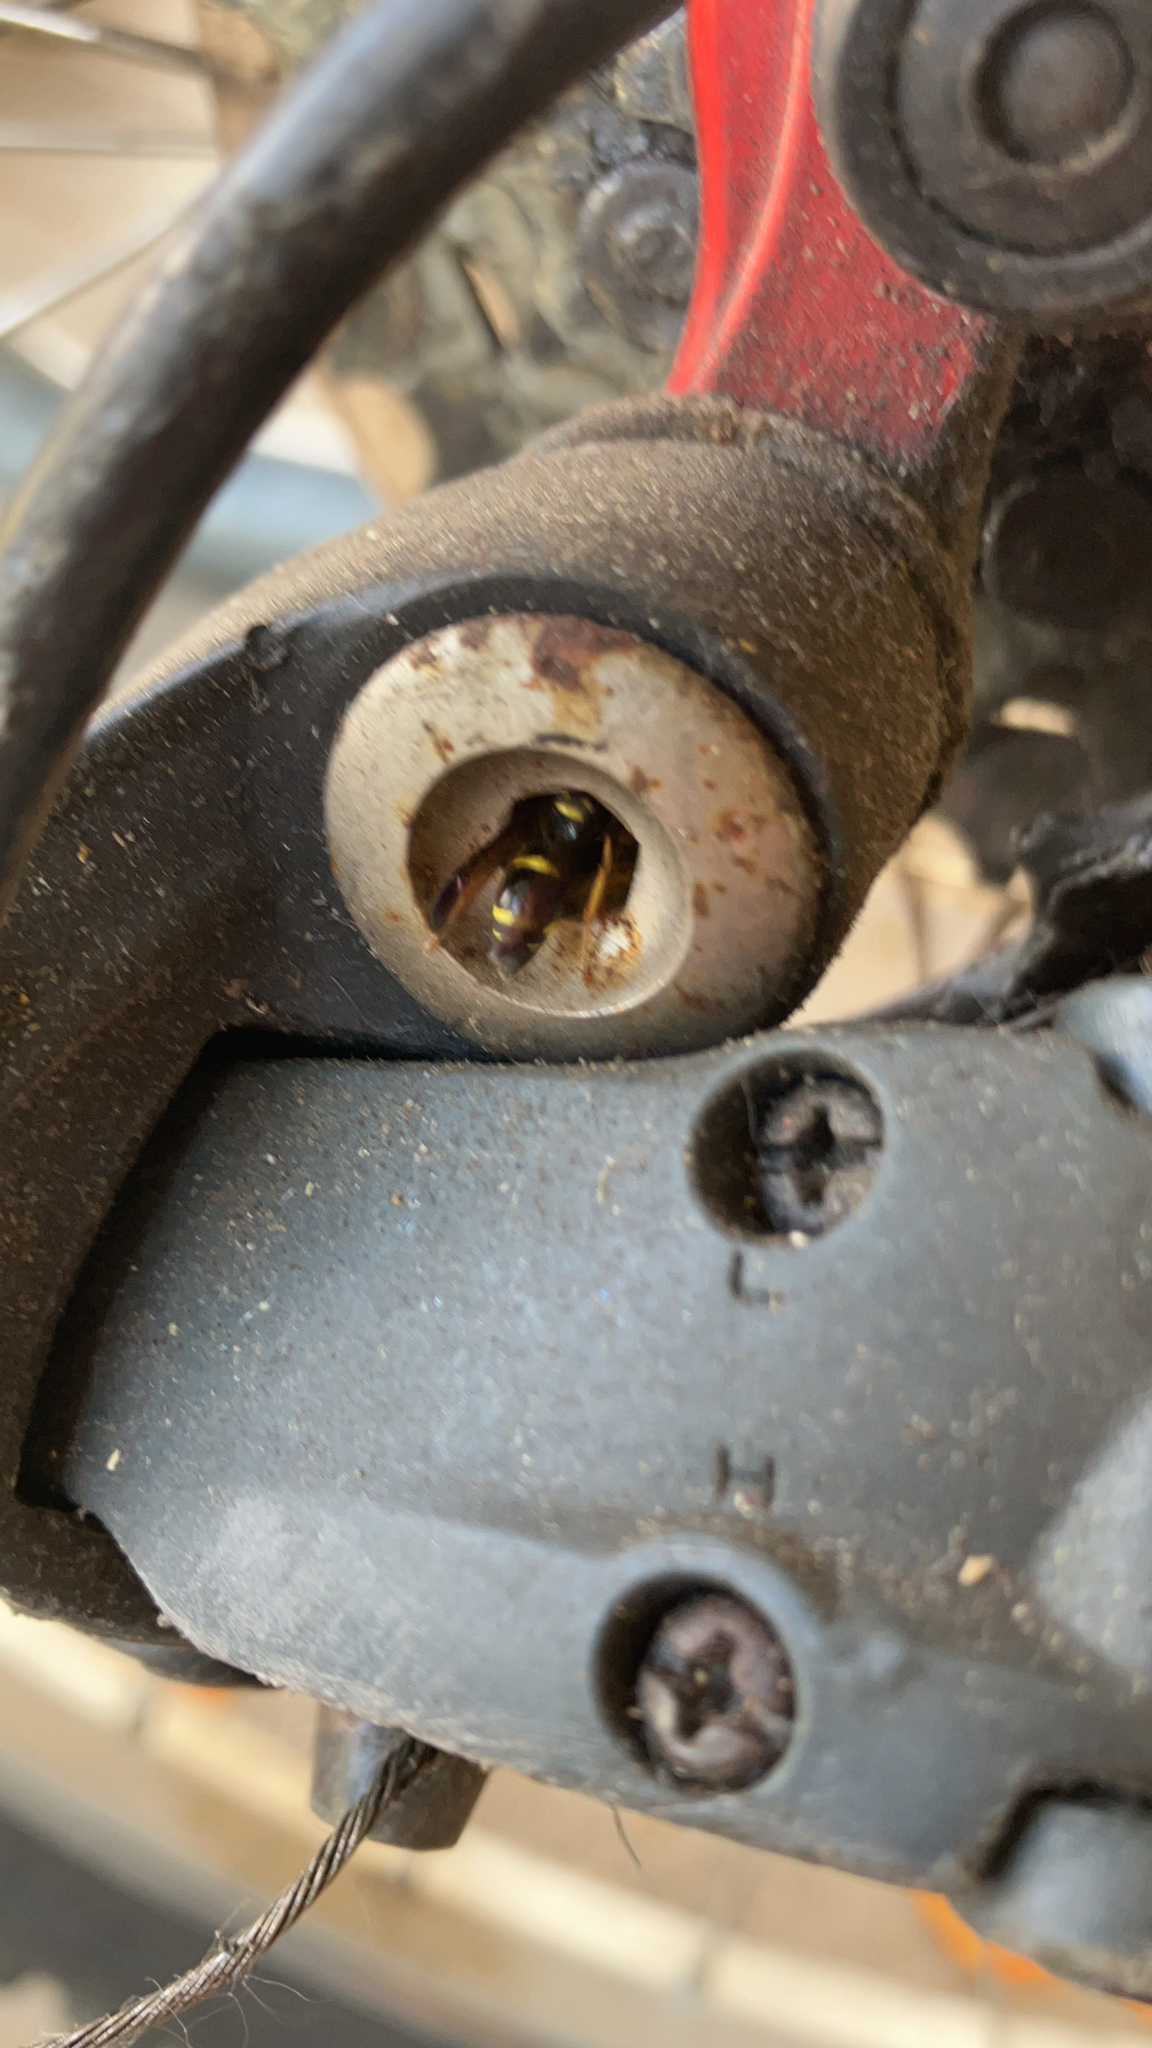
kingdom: Animalia
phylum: Arthropoda
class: Insecta
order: Hymenoptera
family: Vespidae
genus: Ancistrocerus
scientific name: Ancistrocerus campestris
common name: Smiling mason wasp
